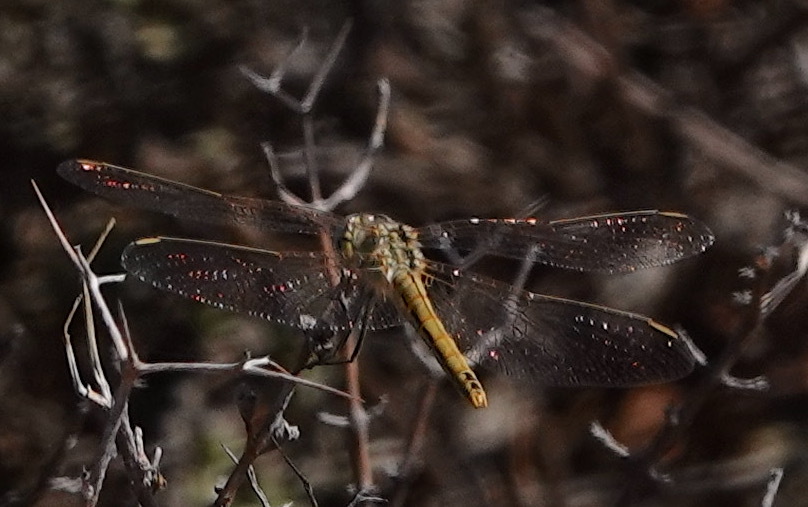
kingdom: Animalia
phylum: Arthropoda
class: Insecta
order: Odonata
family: Libellulidae
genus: Sympetrum
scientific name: Sympetrum fonscolombii
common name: Red-veined darter
